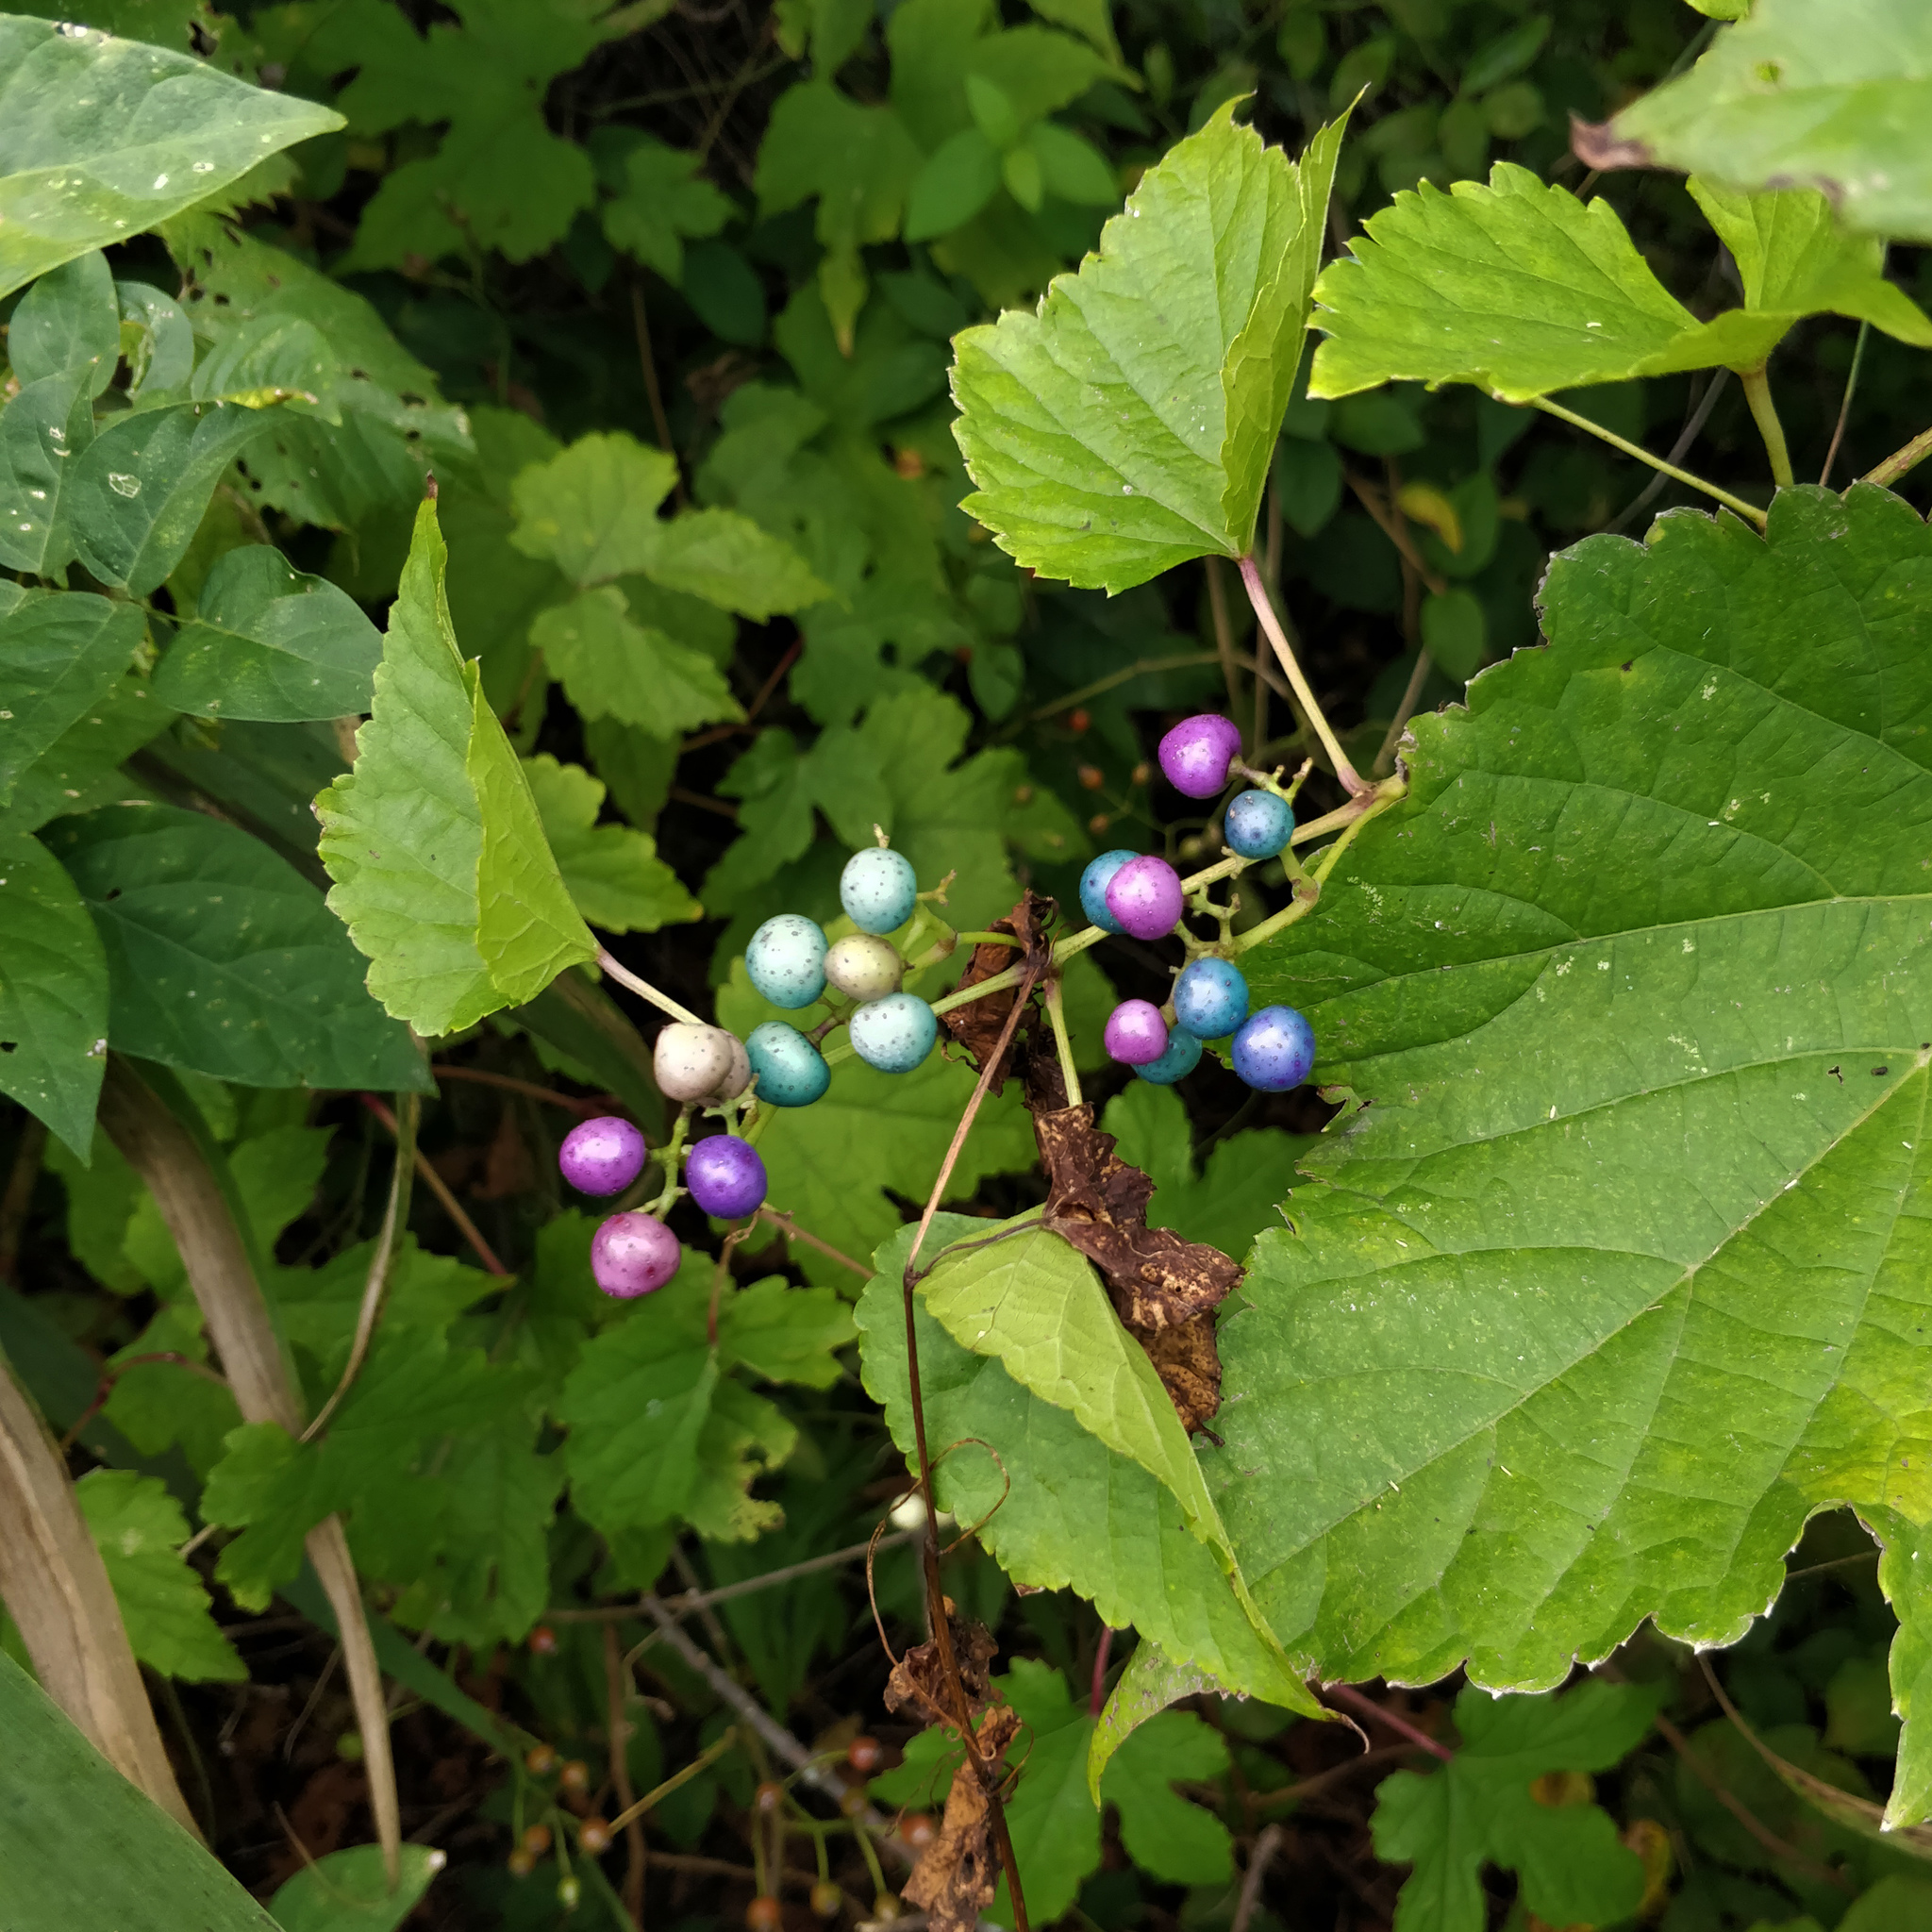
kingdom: Plantae
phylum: Tracheophyta
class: Magnoliopsida
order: Vitales
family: Vitaceae
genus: Ampelopsis
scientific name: Ampelopsis glandulosa
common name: Amur peppervine
